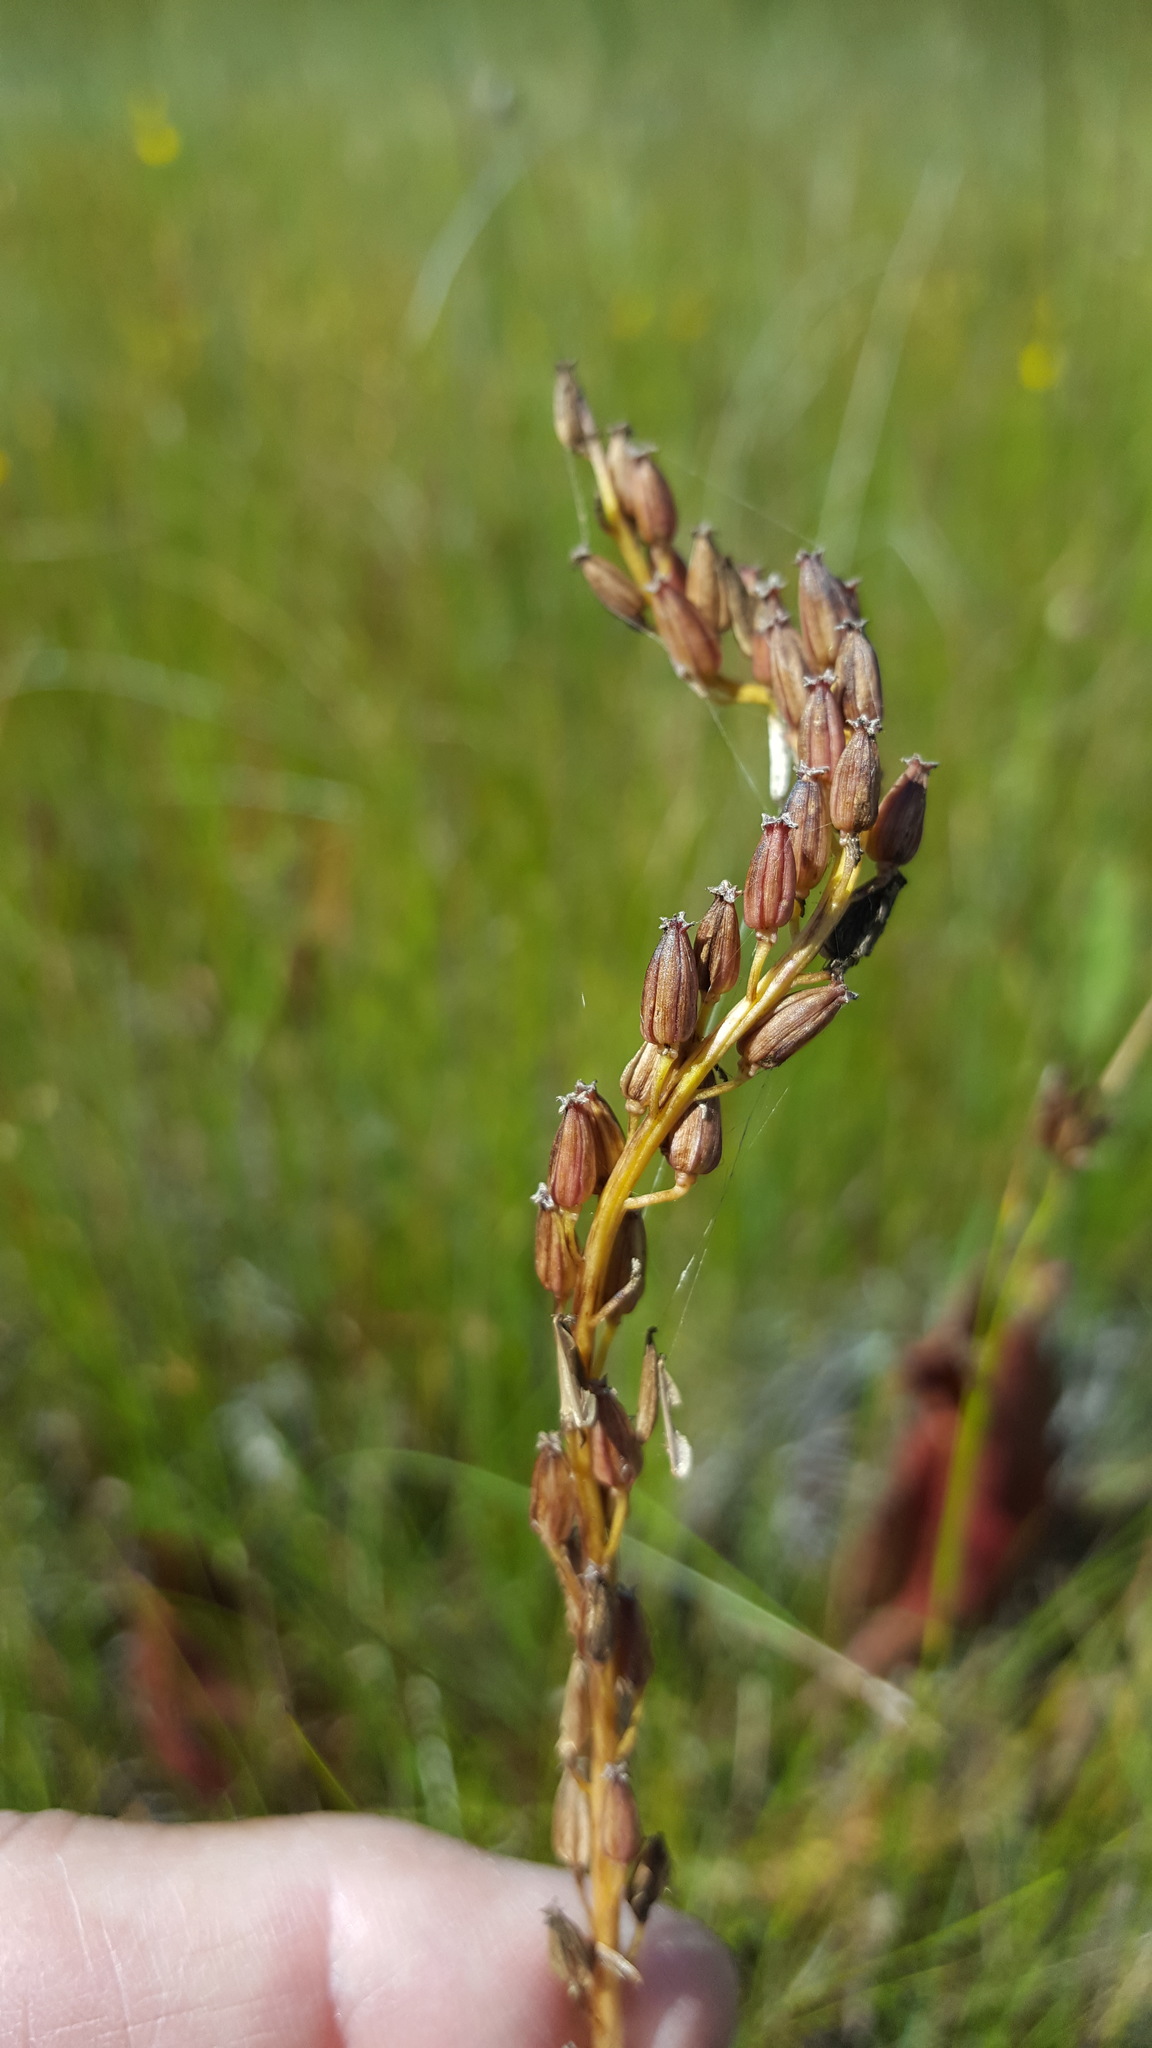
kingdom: Plantae
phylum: Tracheophyta
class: Liliopsida
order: Alismatales
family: Juncaginaceae
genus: Triglochin
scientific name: Triglochin maritima
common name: Sea arrowgrass
